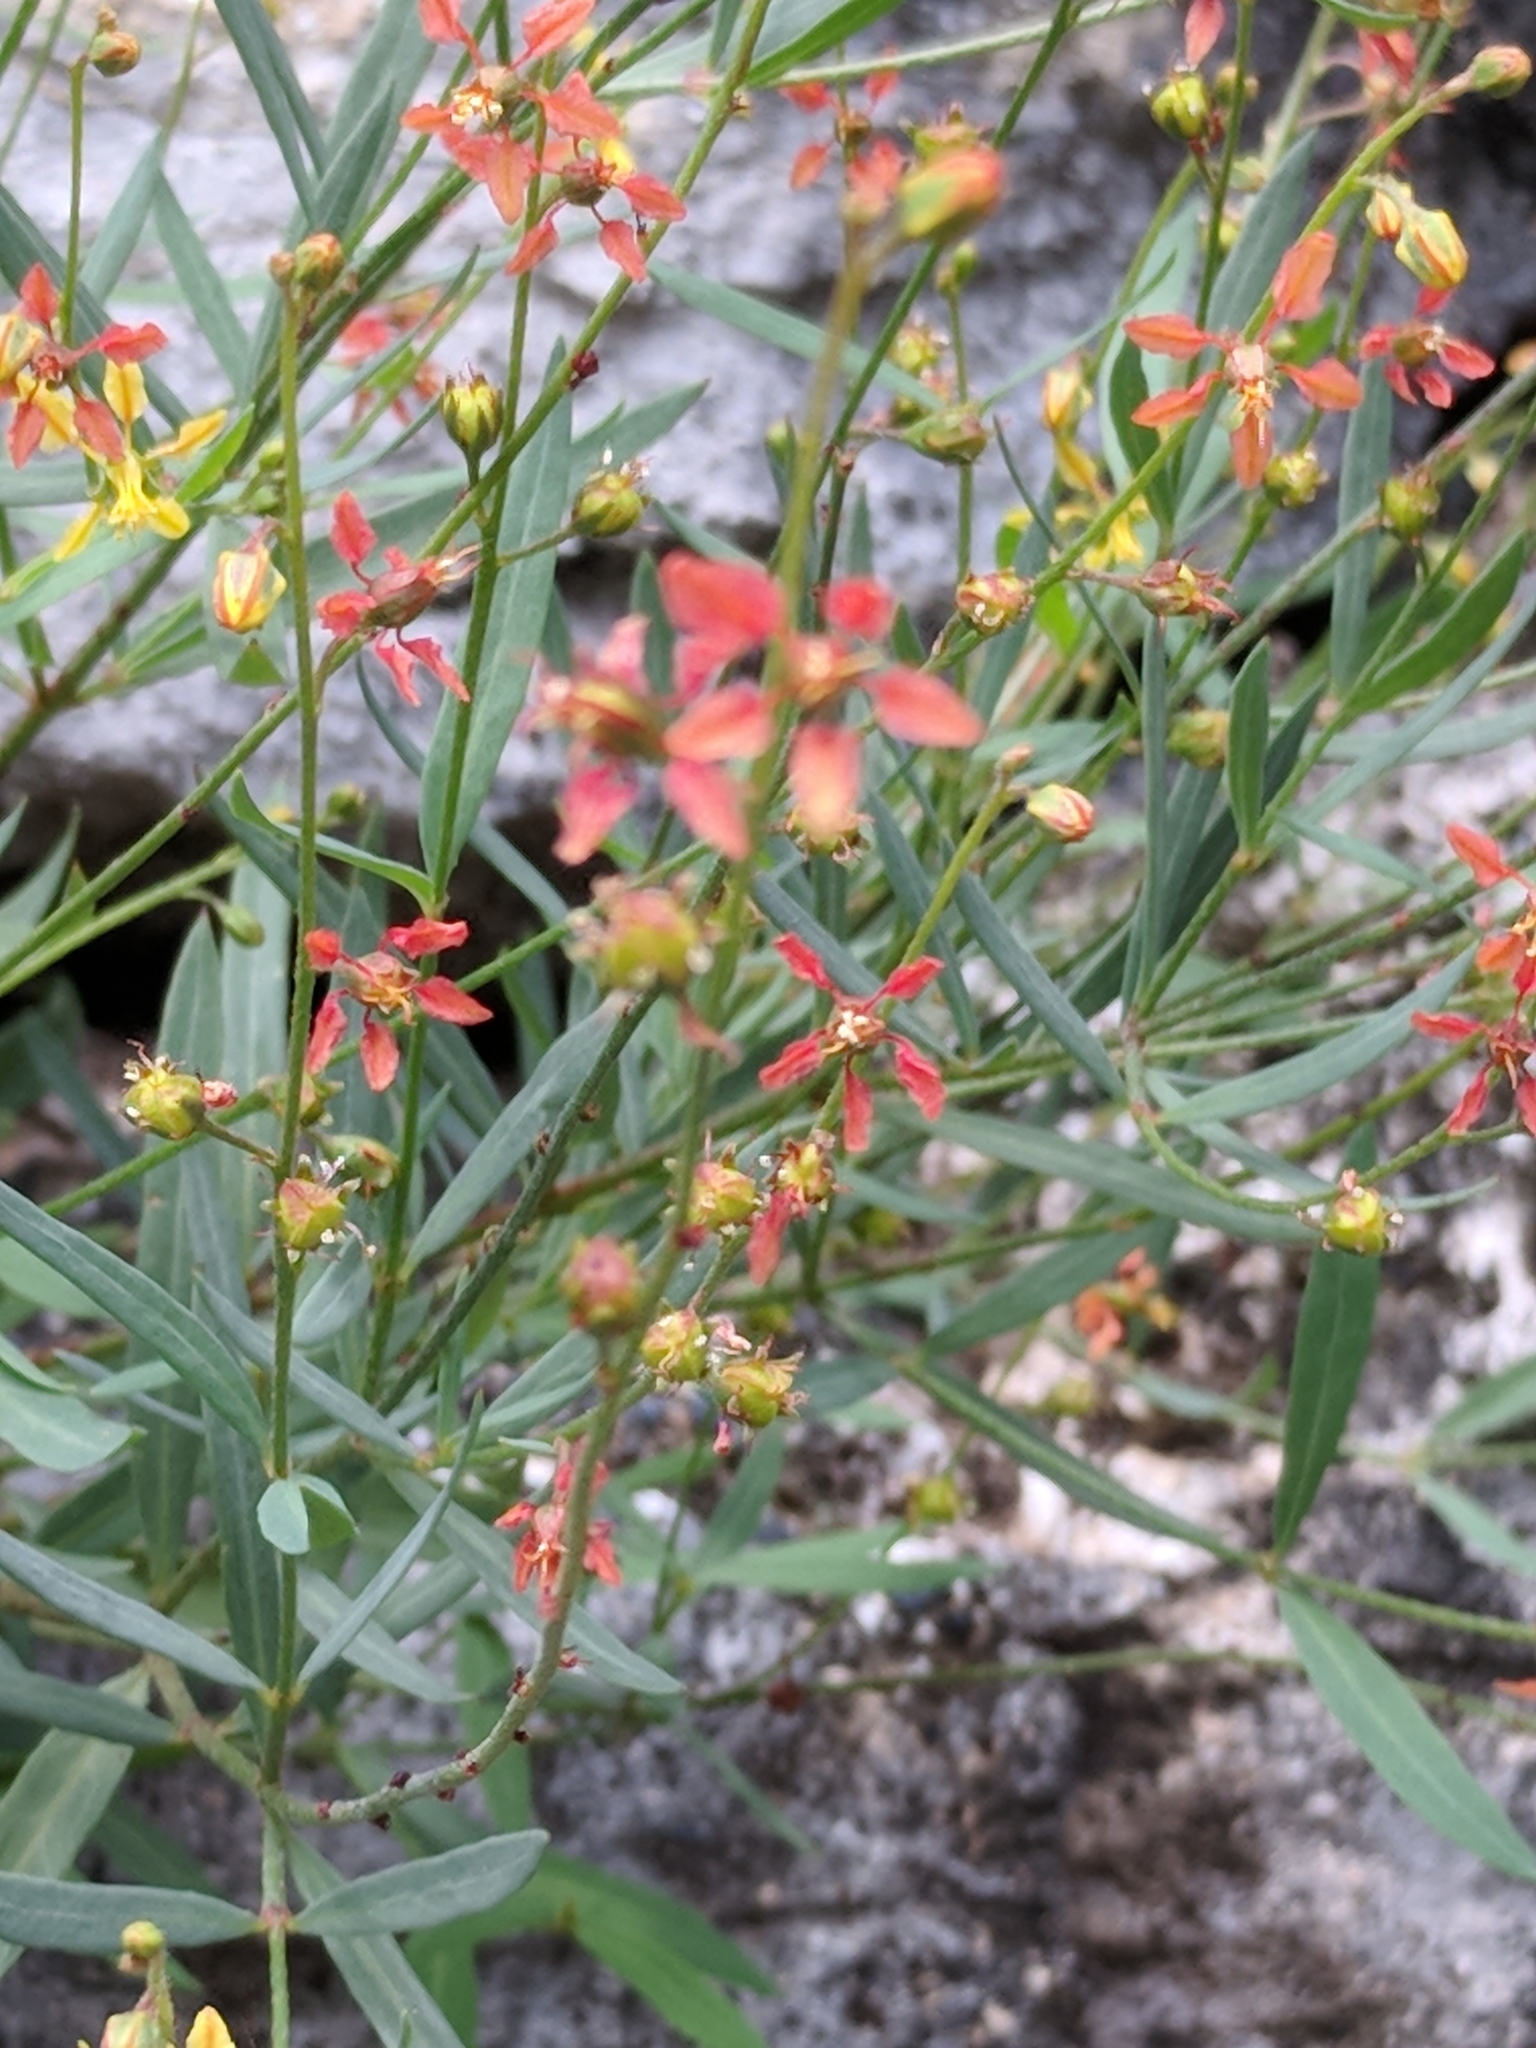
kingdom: Plantae
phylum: Tracheophyta
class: Magnoliopsida
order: Malpighiales
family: Malpighiaceae
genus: Galphimia
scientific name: Galphimia angustifolia
